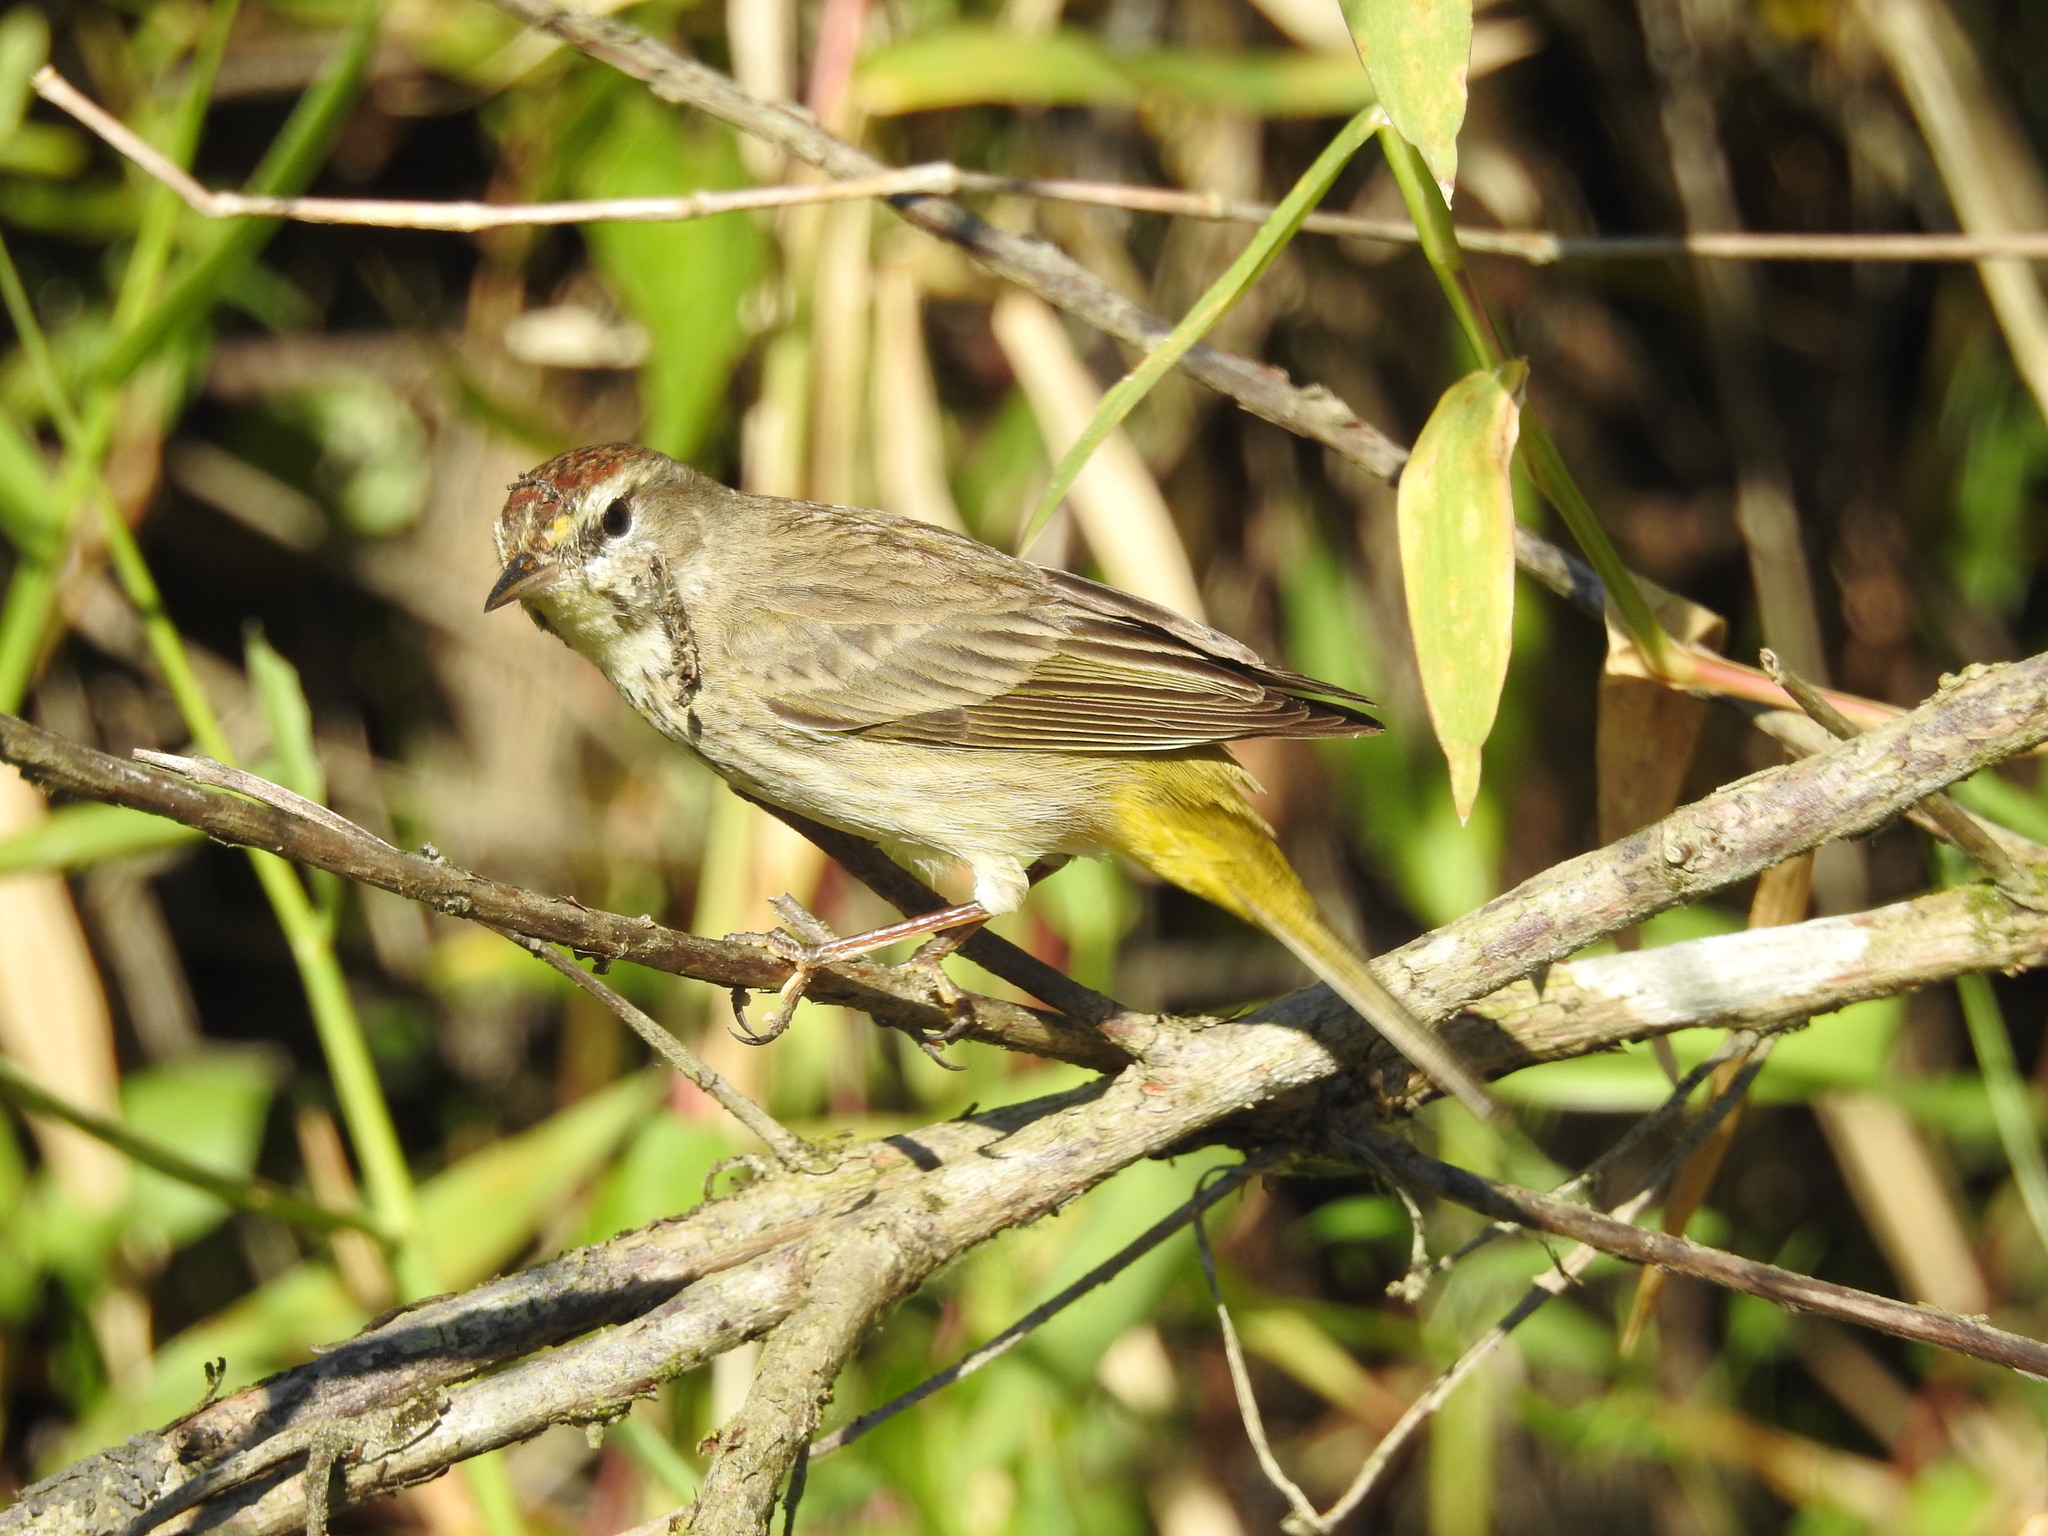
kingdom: Animalia
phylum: Chordata
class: Aves
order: Passeriformes
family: Parulidae
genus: Setophaga
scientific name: Setophaga palmarum
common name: Palm warbler
